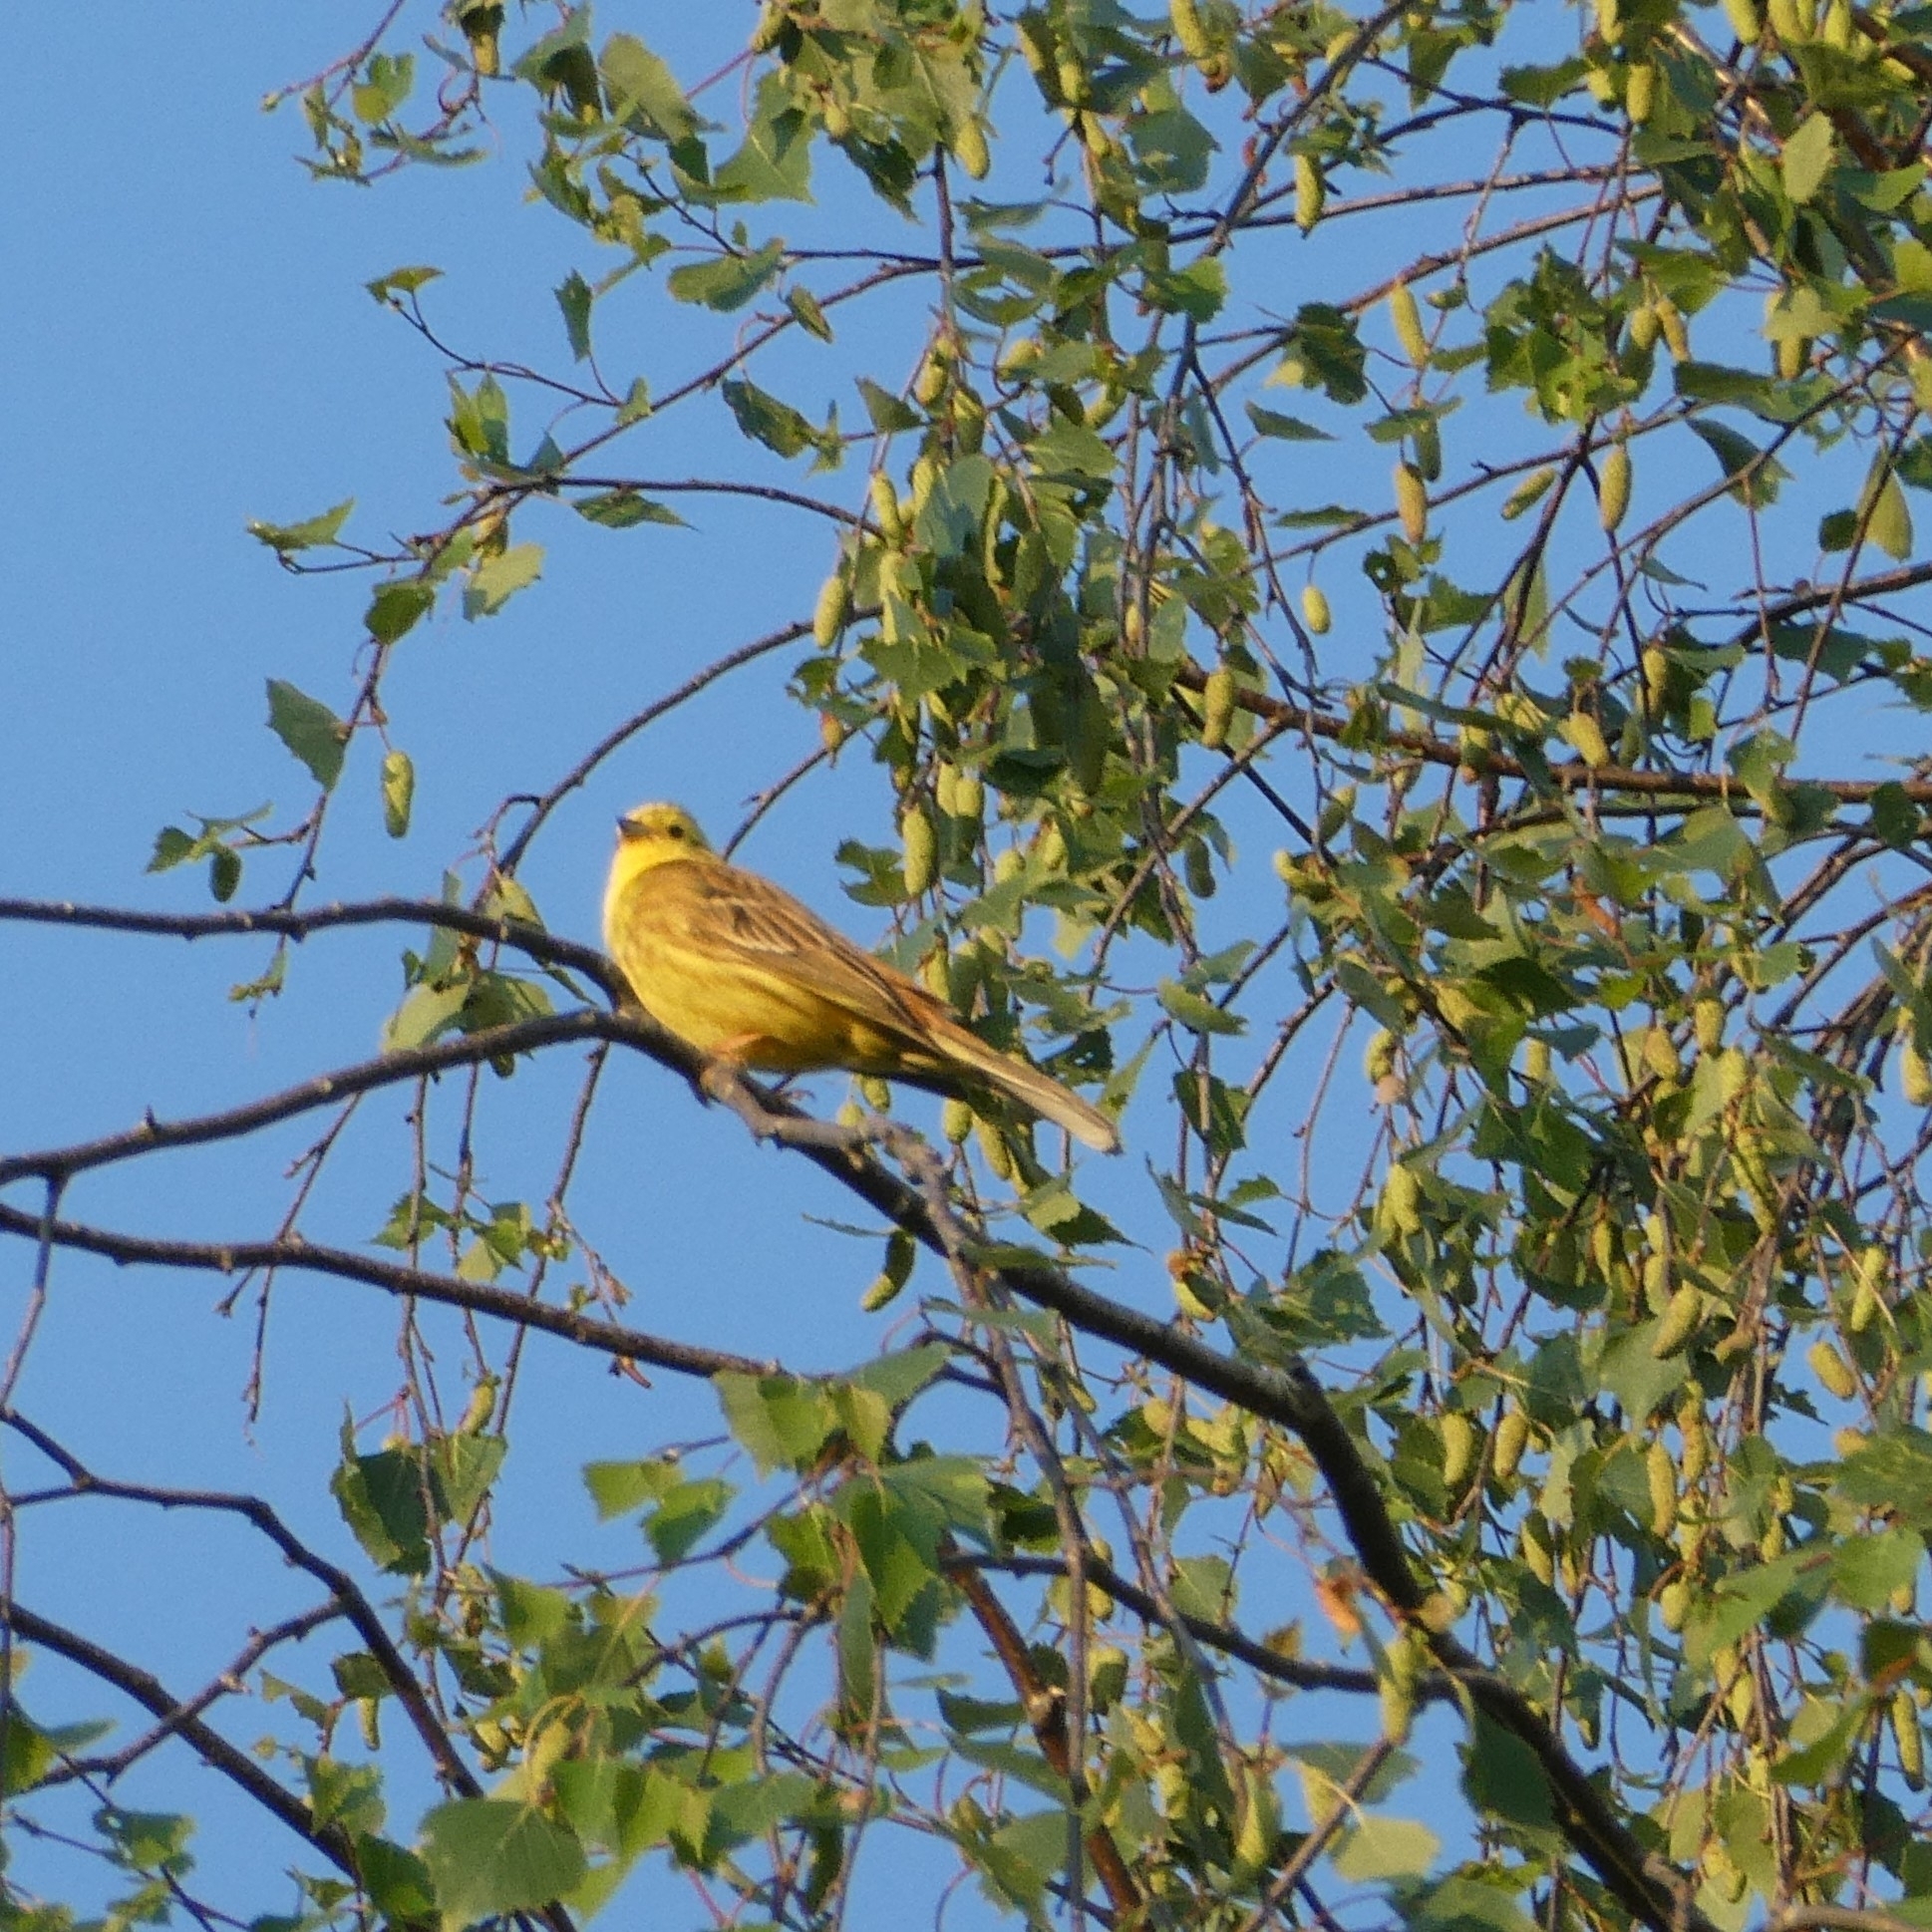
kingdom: Animalia
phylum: Chordata
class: Aves
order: Passeriformes
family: Emberizidae
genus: Emberiza
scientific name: Emberiza citrinella
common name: Yellowhammer
